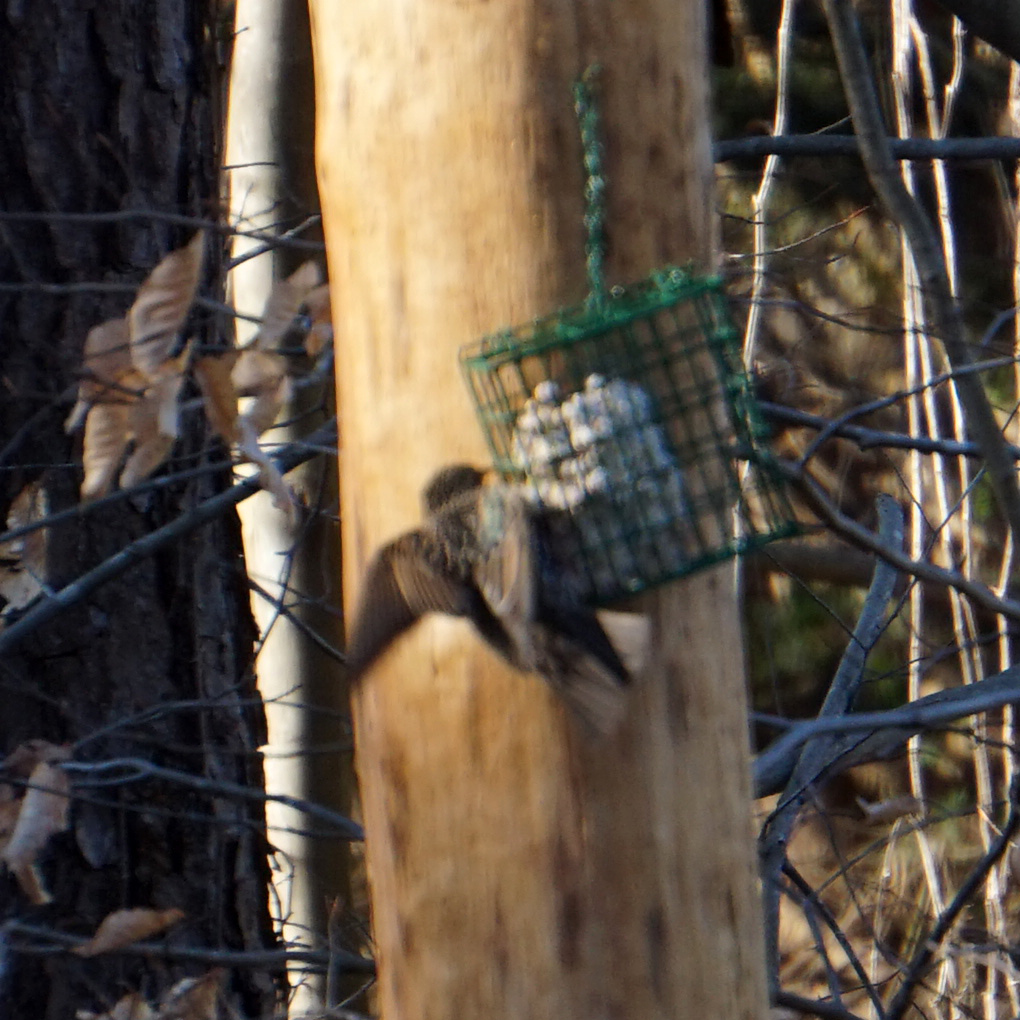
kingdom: Animalia
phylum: Chordata
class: Aves
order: Passeriformes
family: Sturnidae
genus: Sturnus
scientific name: Sturnus vulgaris
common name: Common starling
